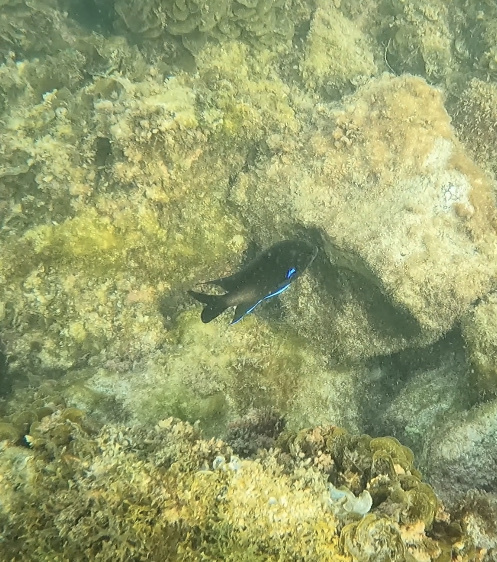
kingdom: Animalia
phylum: Chordata
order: Perciformes
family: Pomacentridae
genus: Similiparma
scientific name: Similiparma lurida
